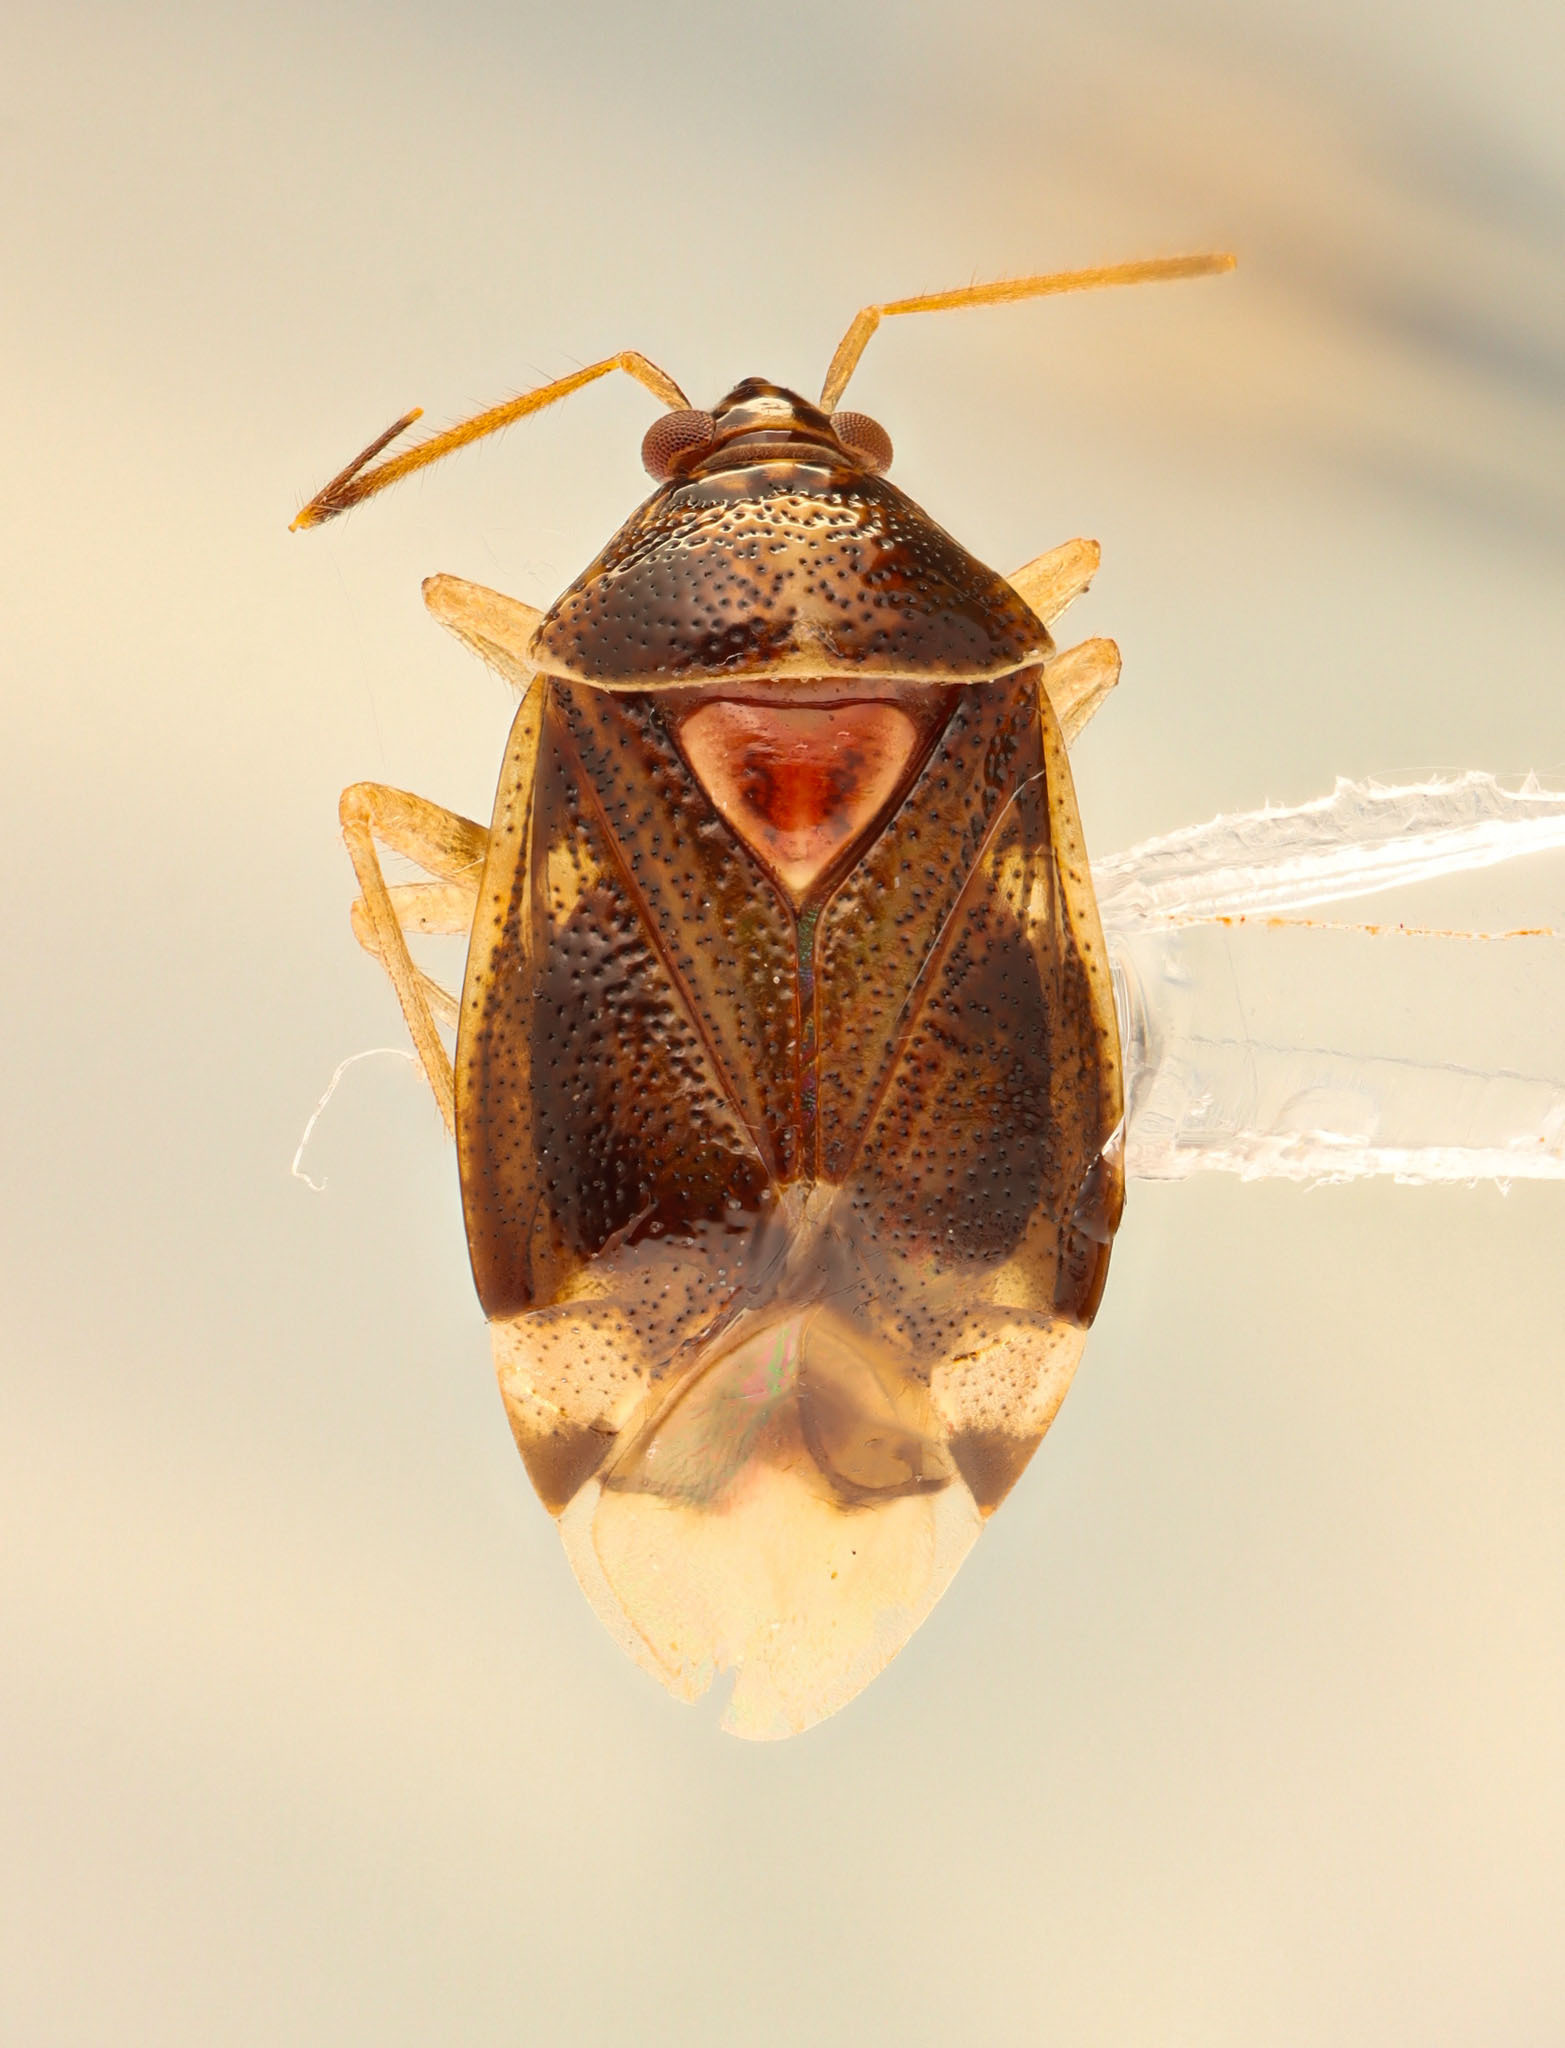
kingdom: Animalia
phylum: Arthropoda
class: Insecta
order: Hemiptera
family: Miridae
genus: Deraeocoris
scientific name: Deraeocoris quercicola
